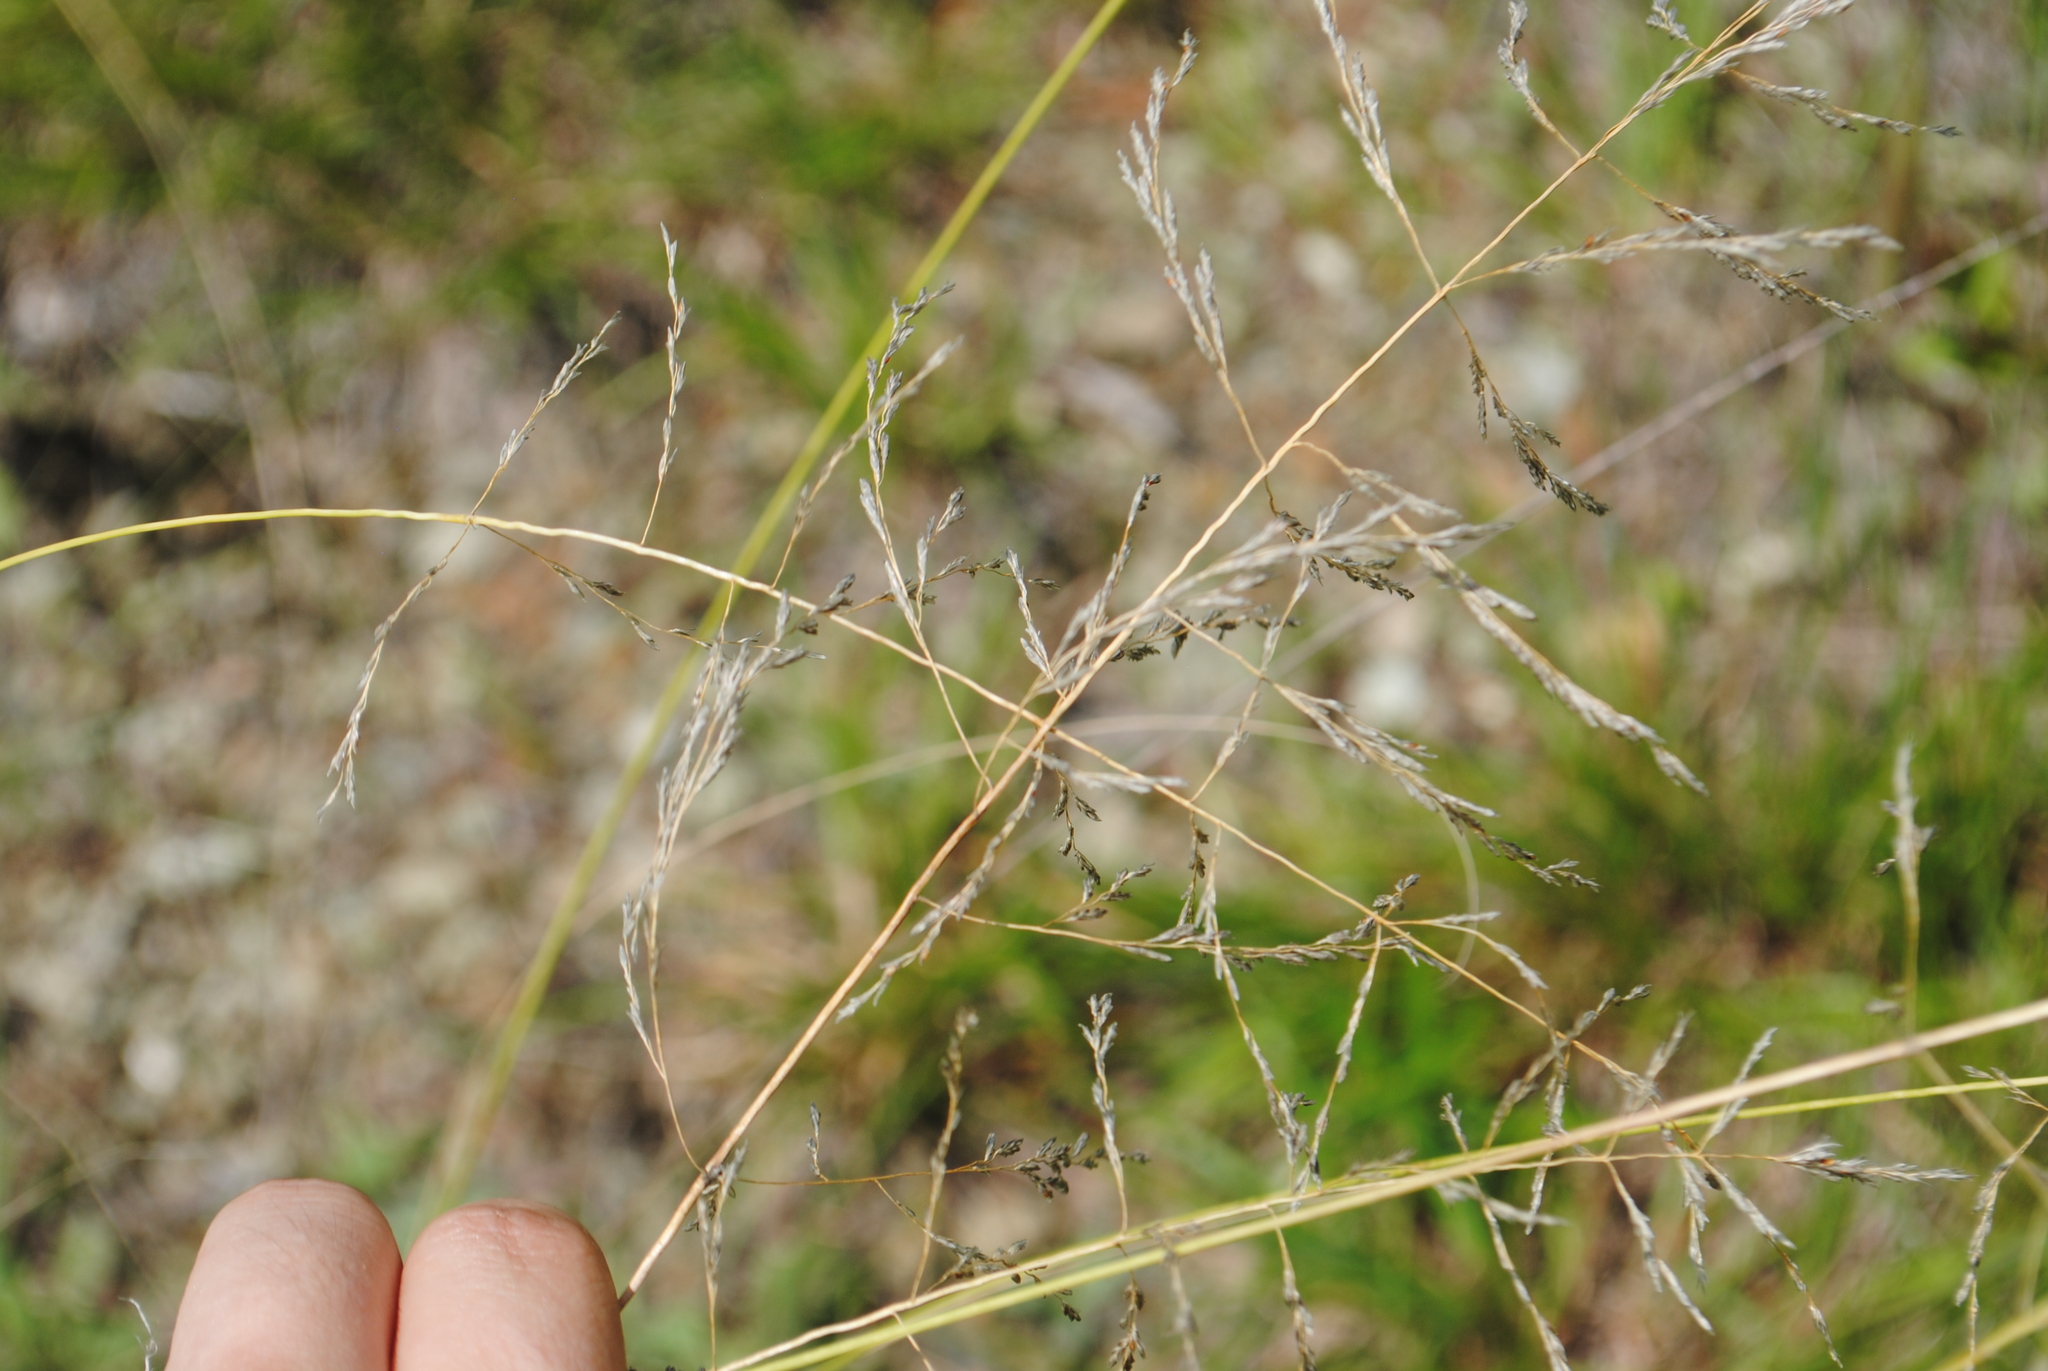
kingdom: Plantae
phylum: Tracheophyta
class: Liliopsida
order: Poales
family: Poaceae
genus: Eragrostis
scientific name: Eragrostis curvula
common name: African love-grass
